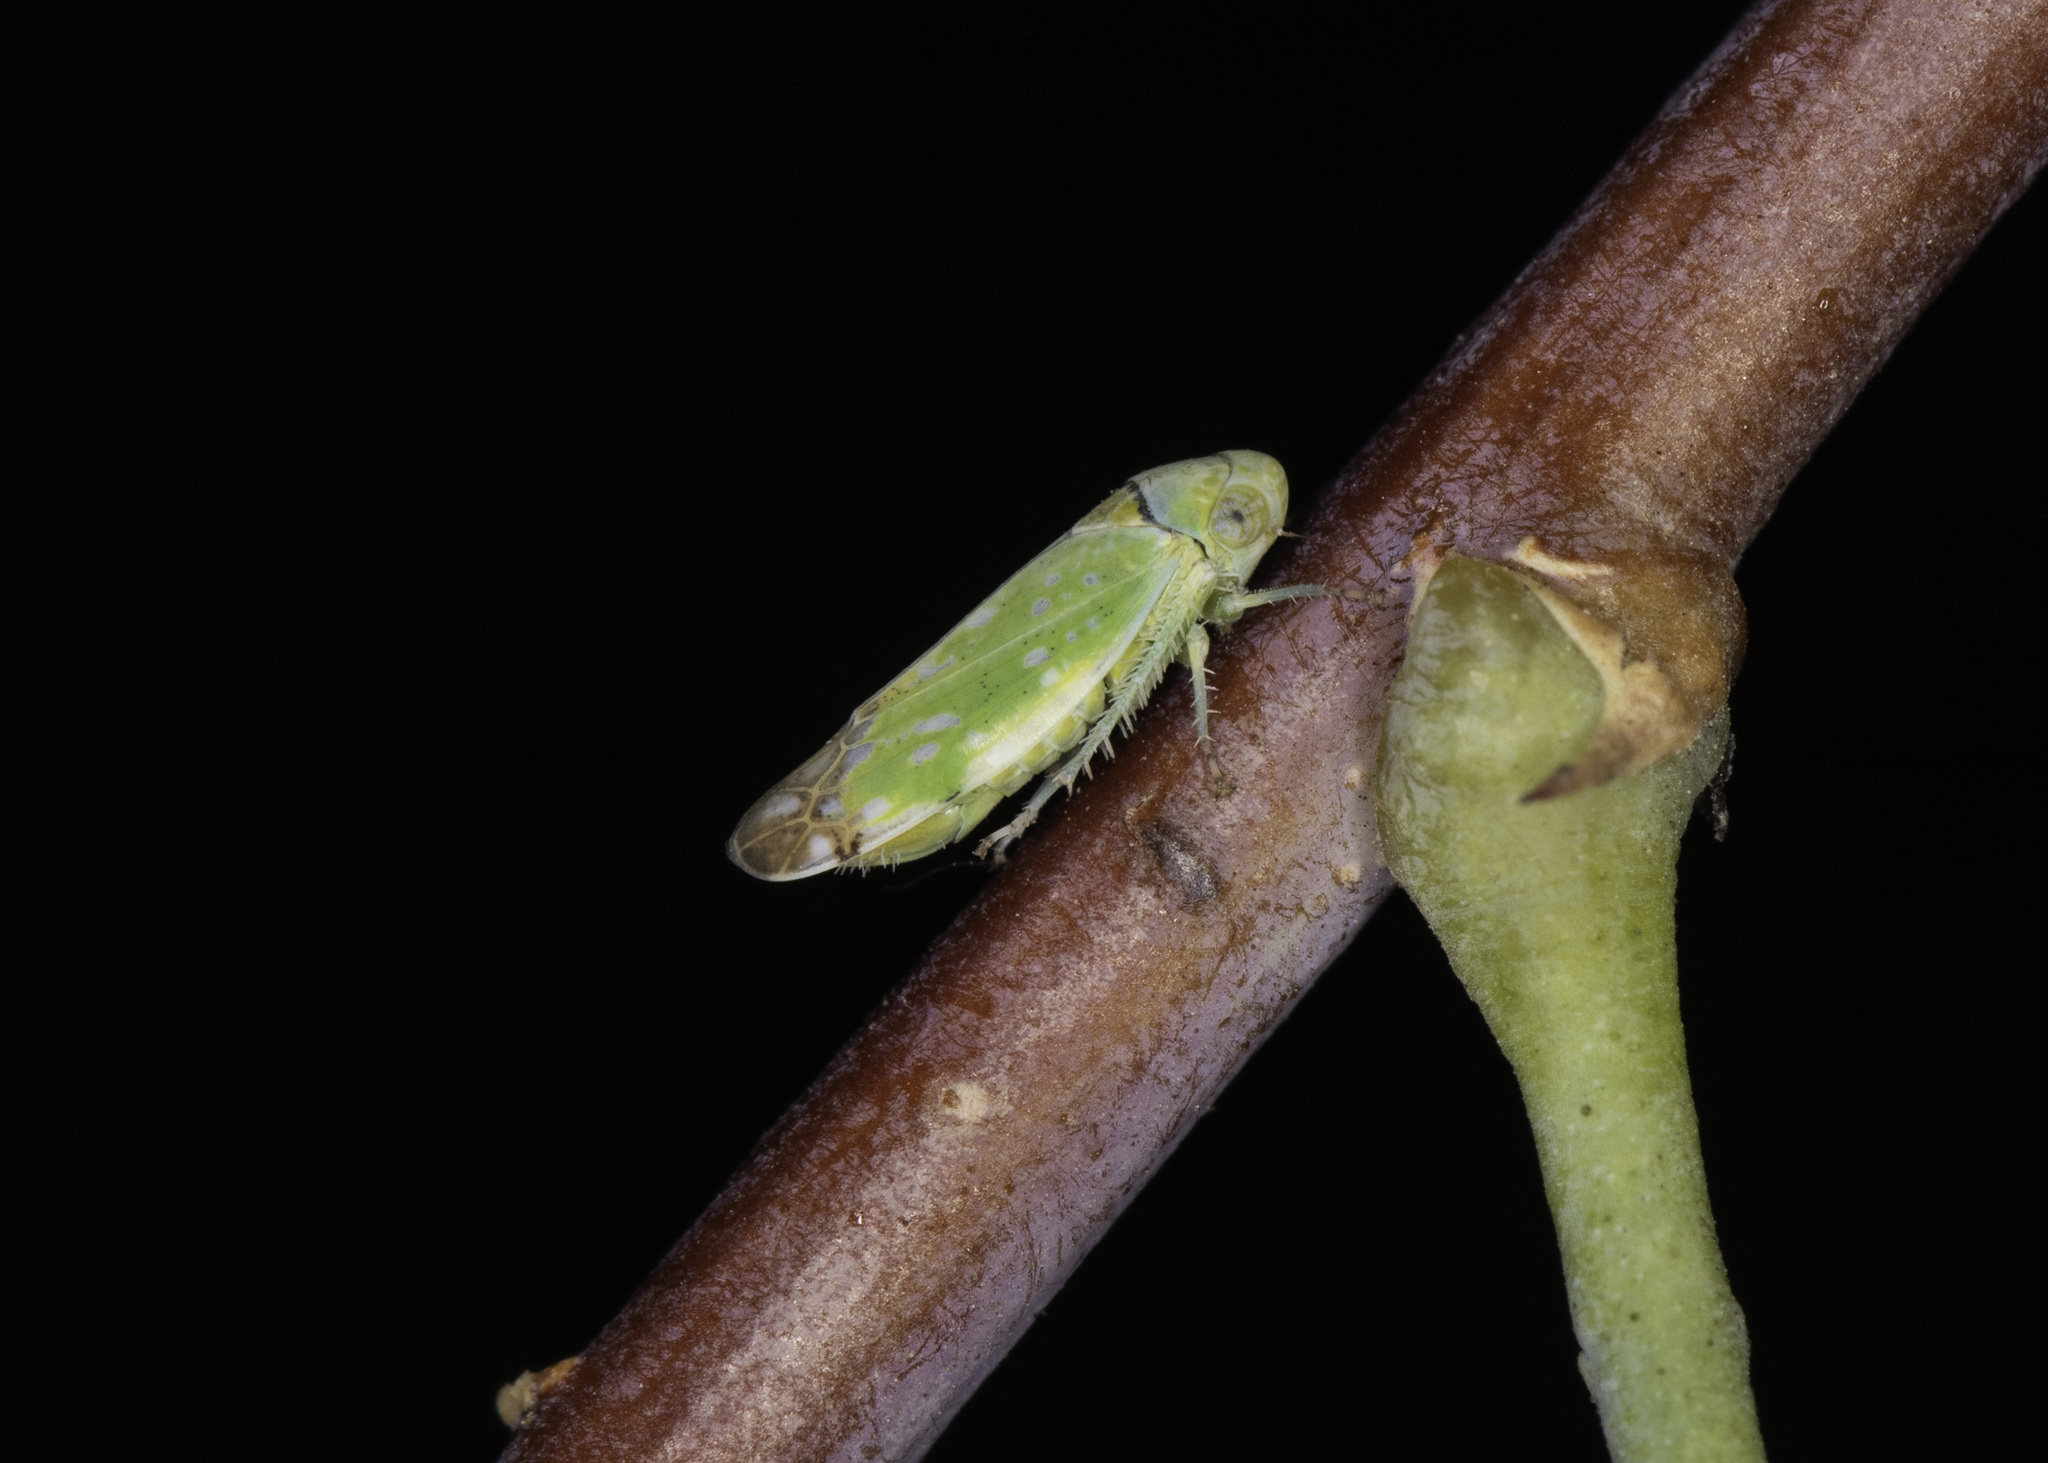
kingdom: Animalia
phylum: Arthropoda
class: Insecta
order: Hemiptera
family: Cicadellidae
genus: Opsius
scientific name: Opsius stactogalus
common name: Leafhopper
